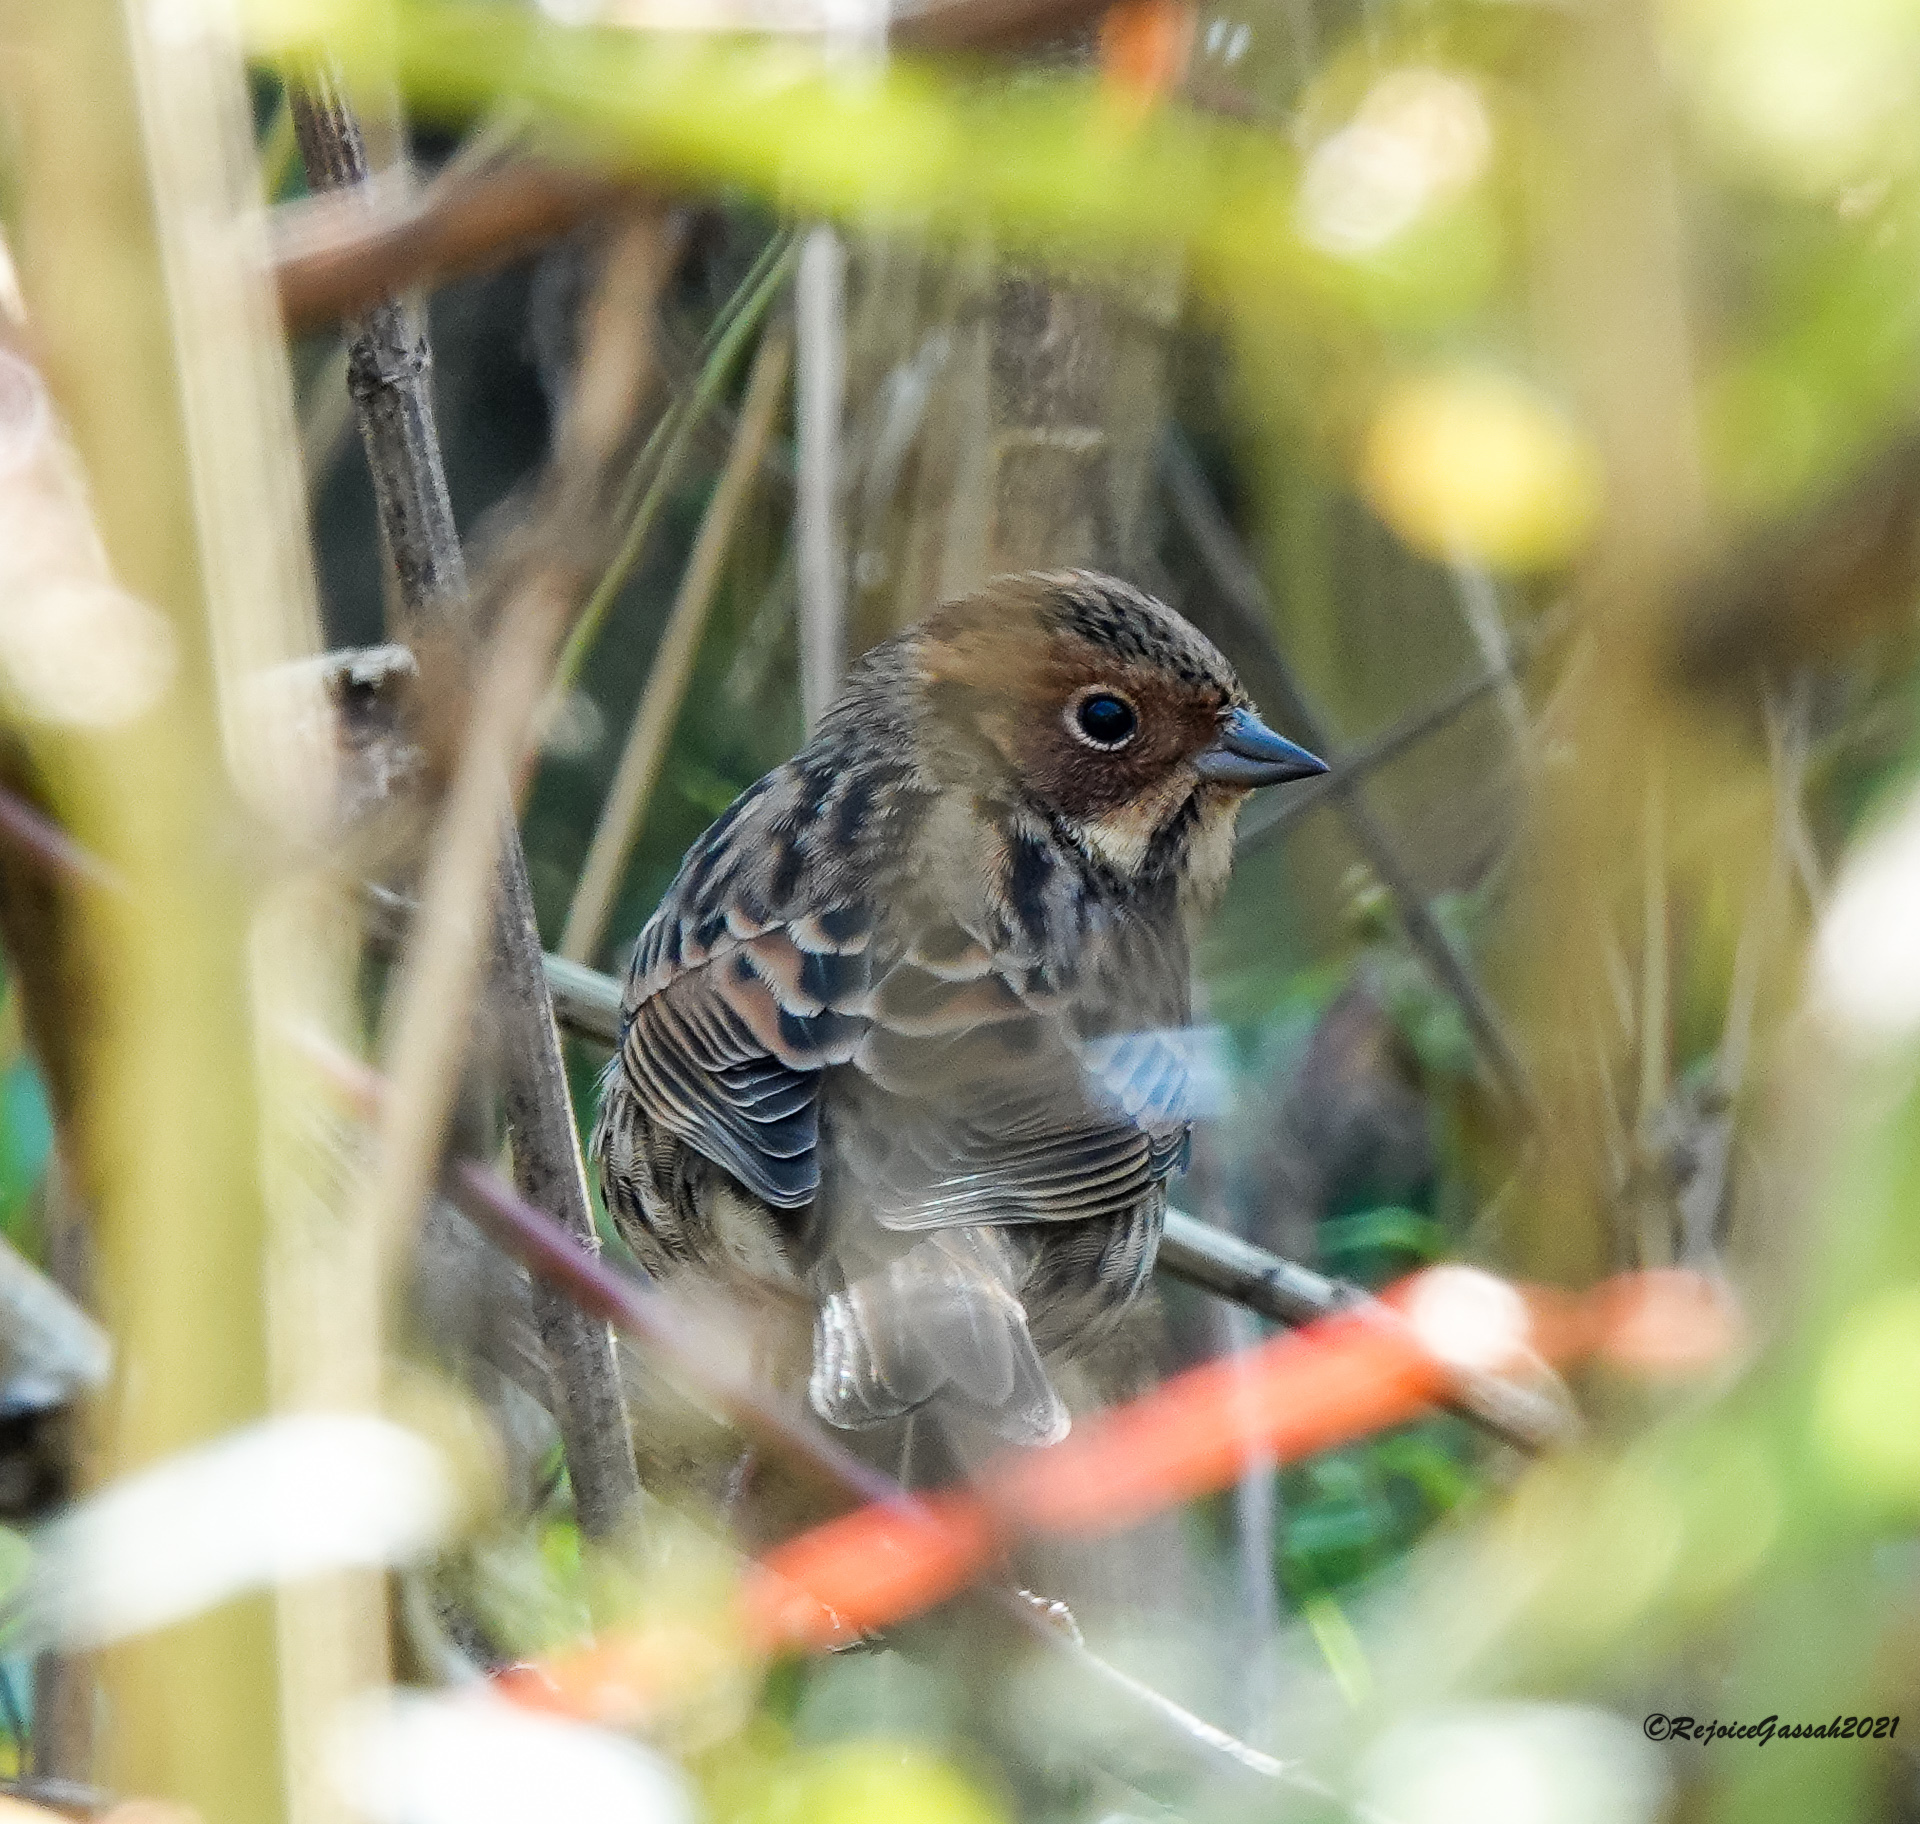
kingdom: Animalia
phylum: Chordata
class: Aves
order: Passeriformes
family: Emberizidae
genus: Emberiza
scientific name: Emberiza pusilla
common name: Little bunting
